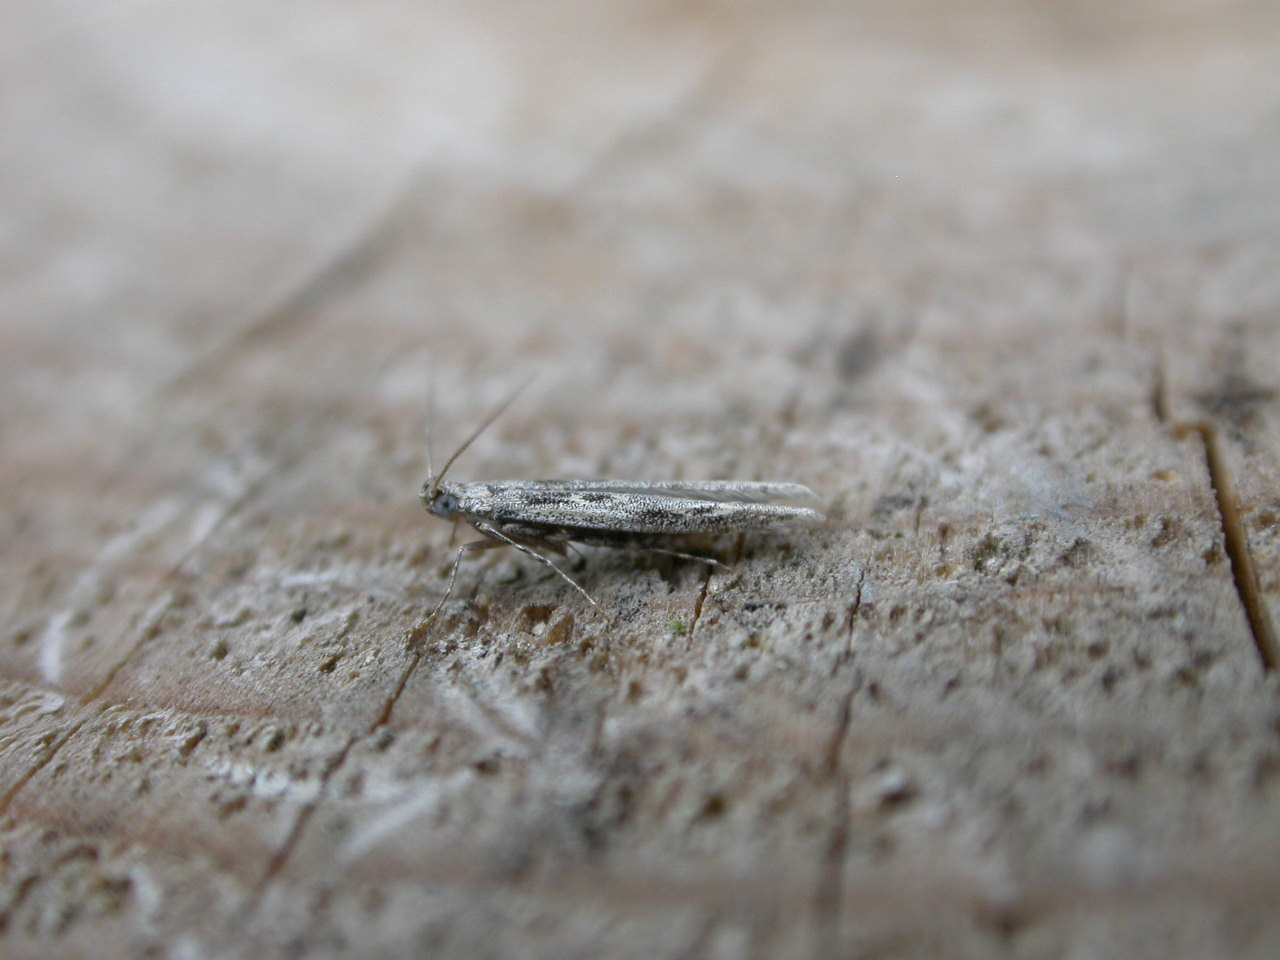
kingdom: Animalia
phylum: Arthropoda
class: Insecta
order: Lepidoptera
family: Batrachedridae
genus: Batrachedra
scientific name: Batrachedra praeangusta
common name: Poplar cosmet
